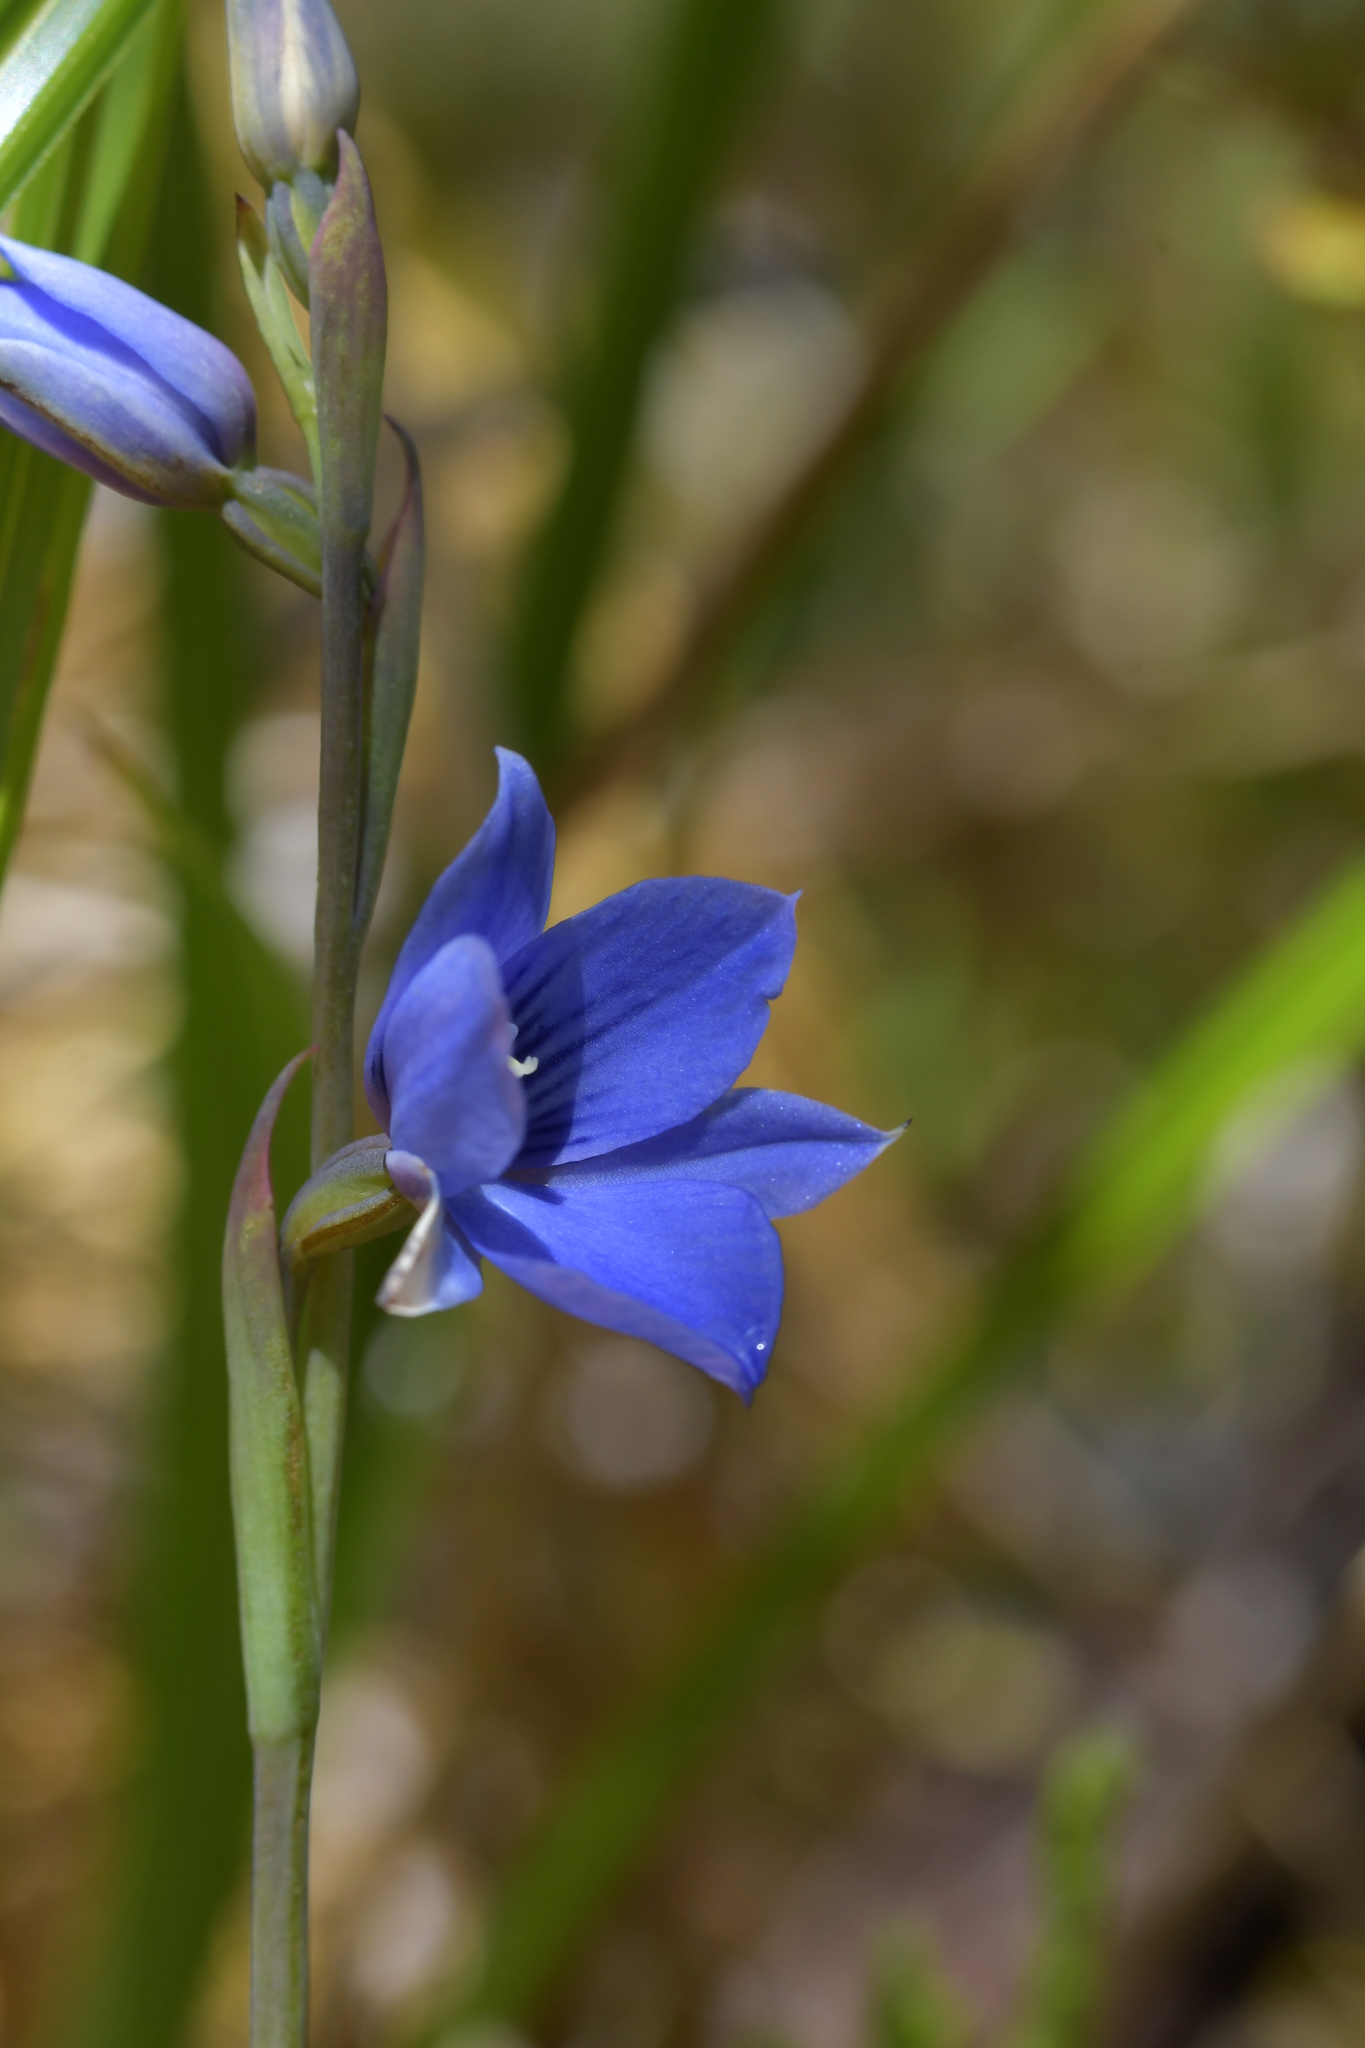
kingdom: Plantae
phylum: Tracheophyta
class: Liliopsida
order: Asparagales
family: Orchidaceae
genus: Thelymitra
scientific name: Thelymitra cyanea
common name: Blue sun-orchid
